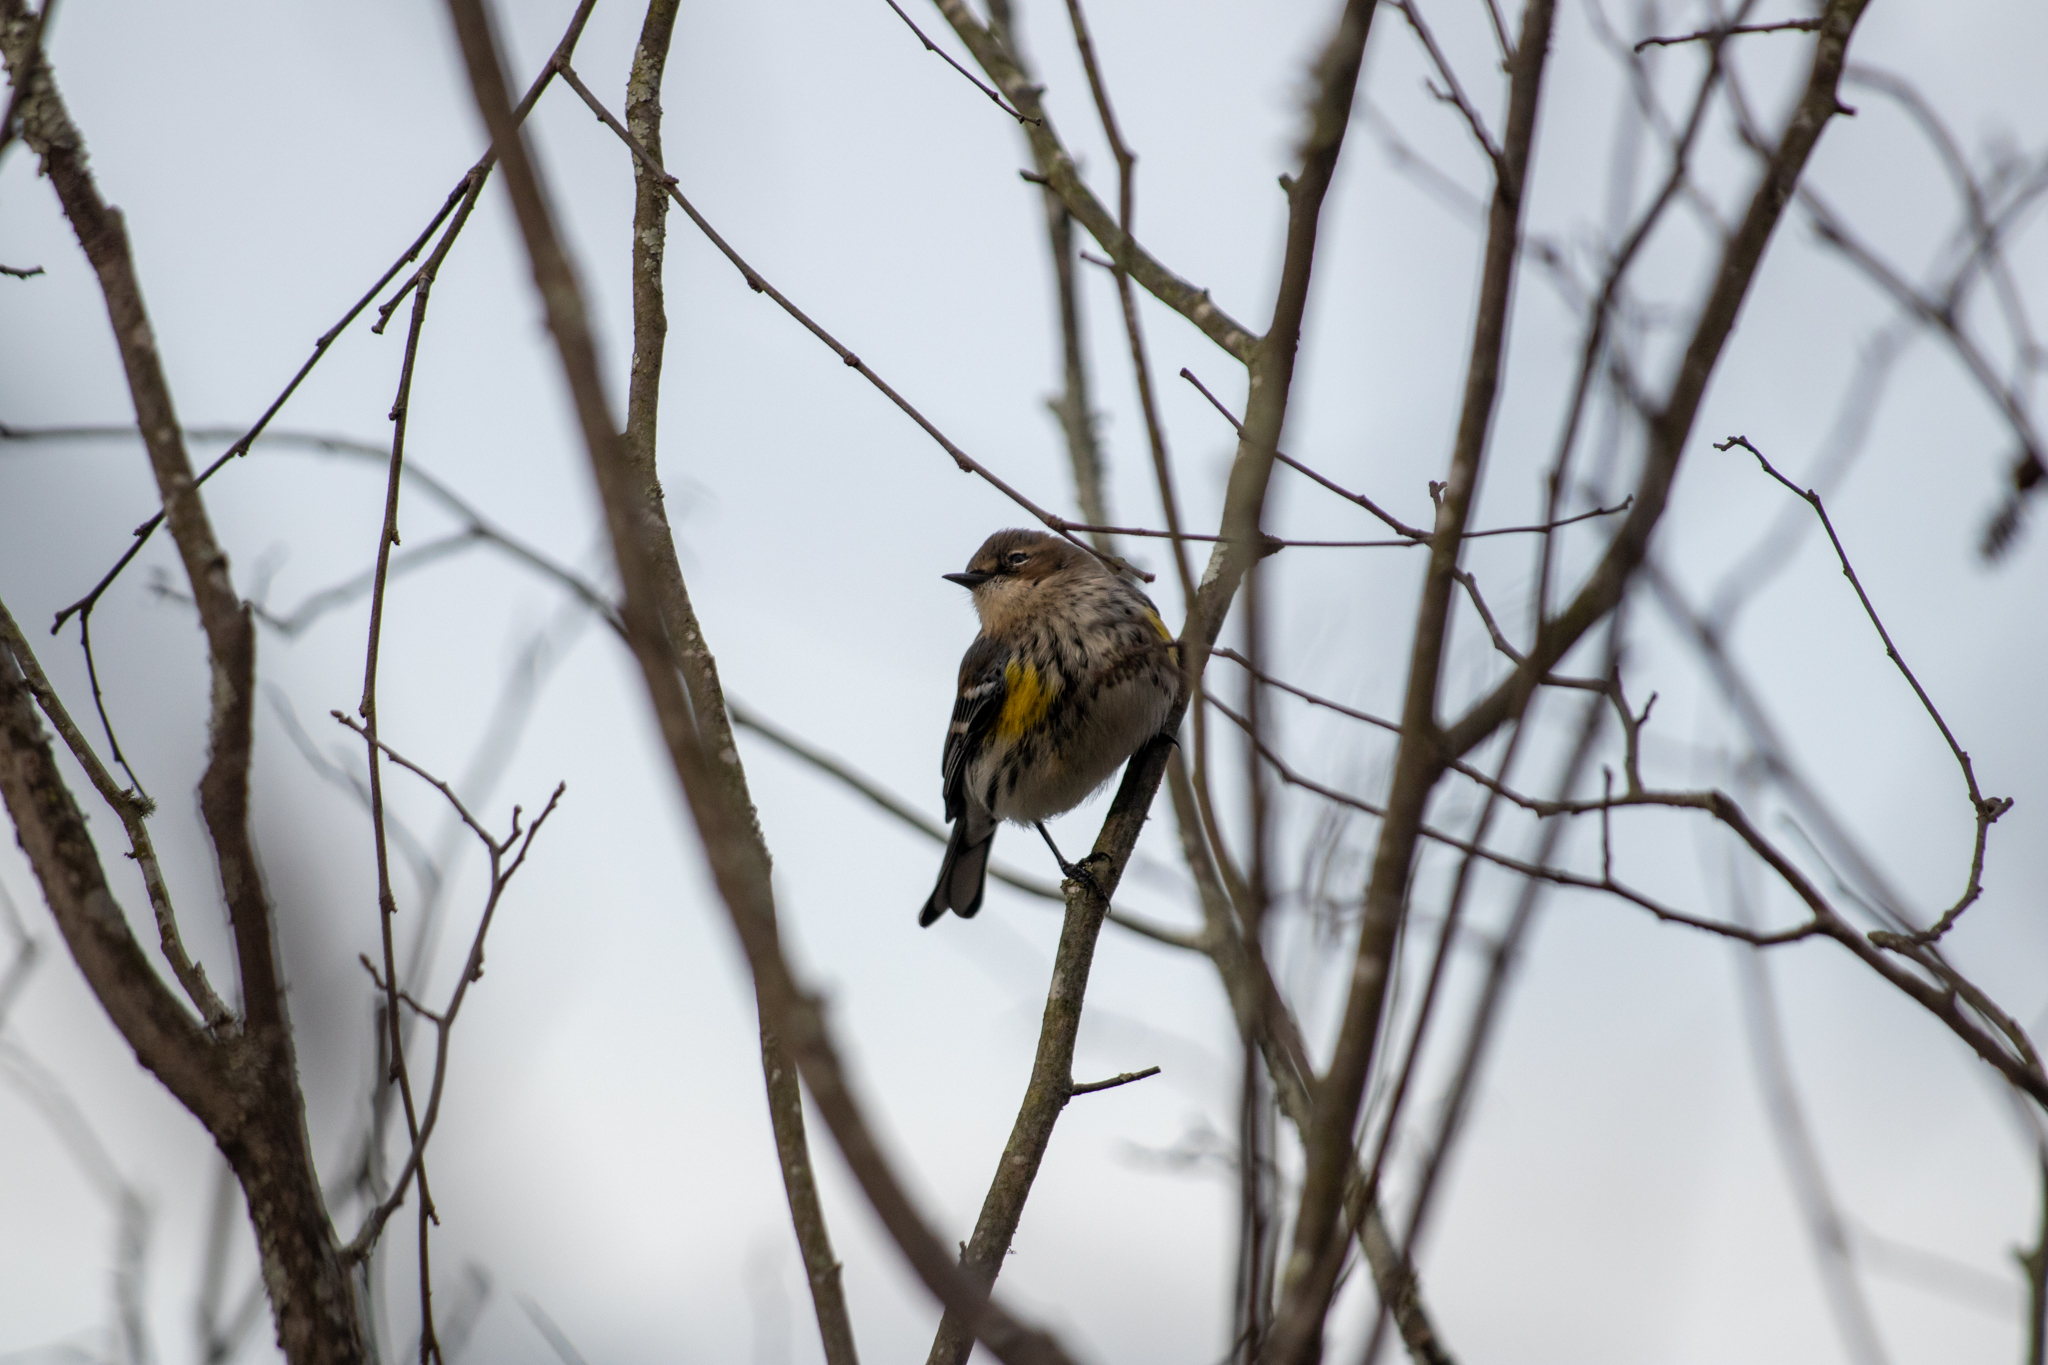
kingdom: Animalia
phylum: Chordata
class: Aves
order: Passeriformes
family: Parulidae
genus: Setophaga
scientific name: Setophaga coronata
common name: Myrtle warbler
